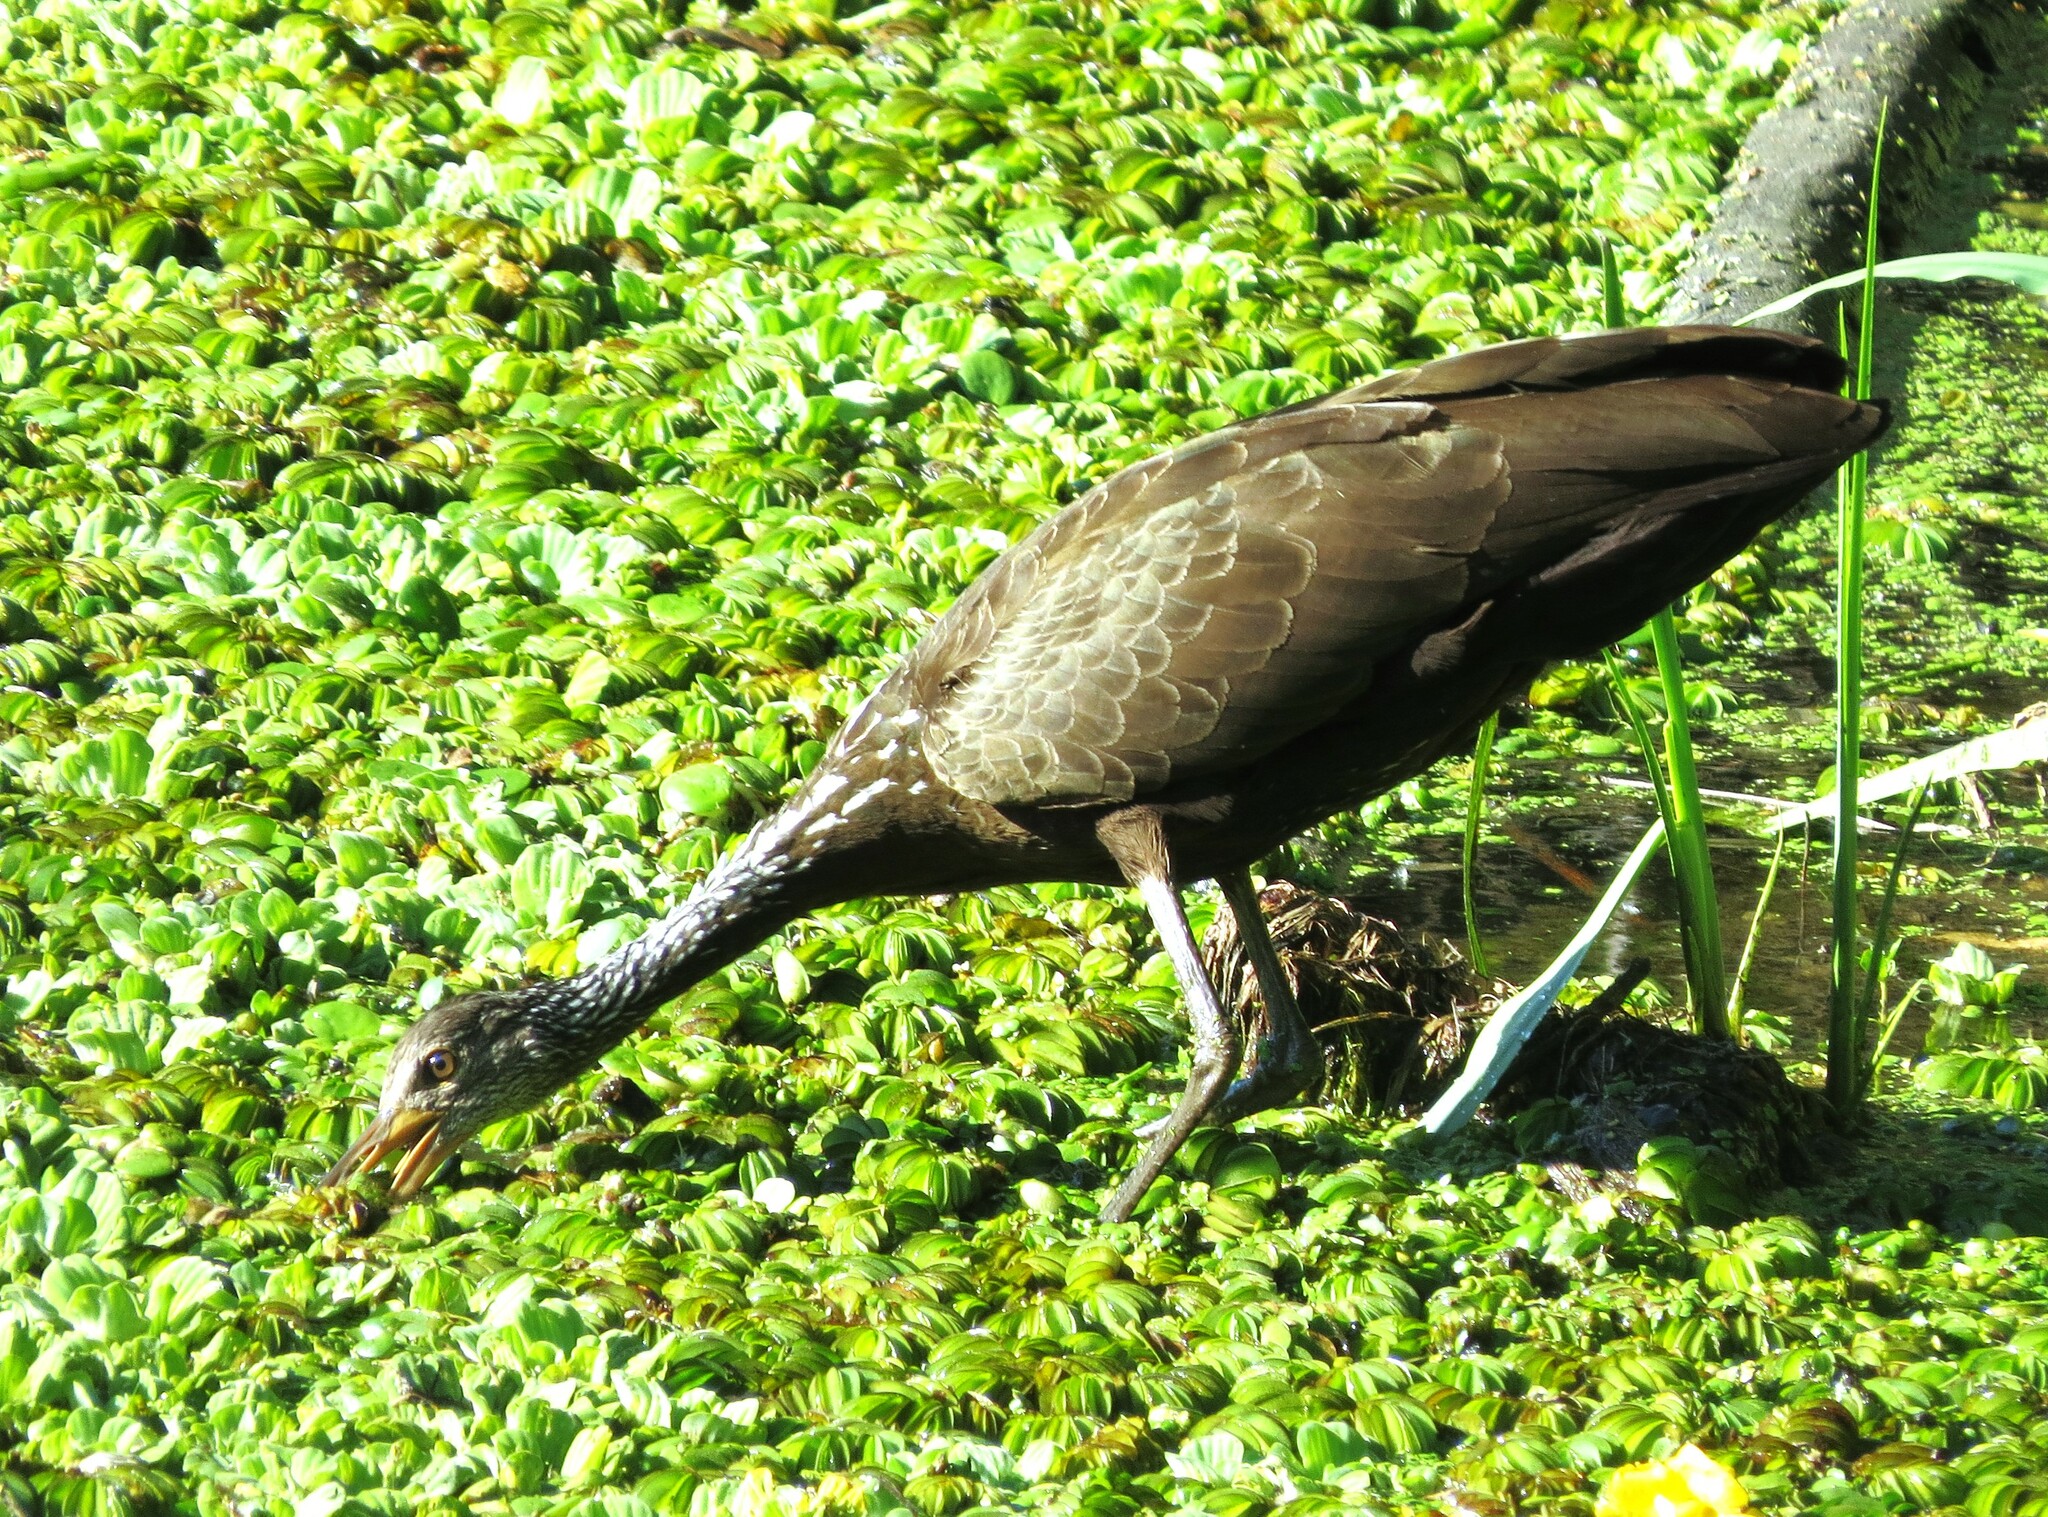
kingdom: Animalia
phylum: Chordata
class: Aves
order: Gruiformes
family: Aramidae
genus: Aramus
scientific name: Aramus guarauna
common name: Limpkin
